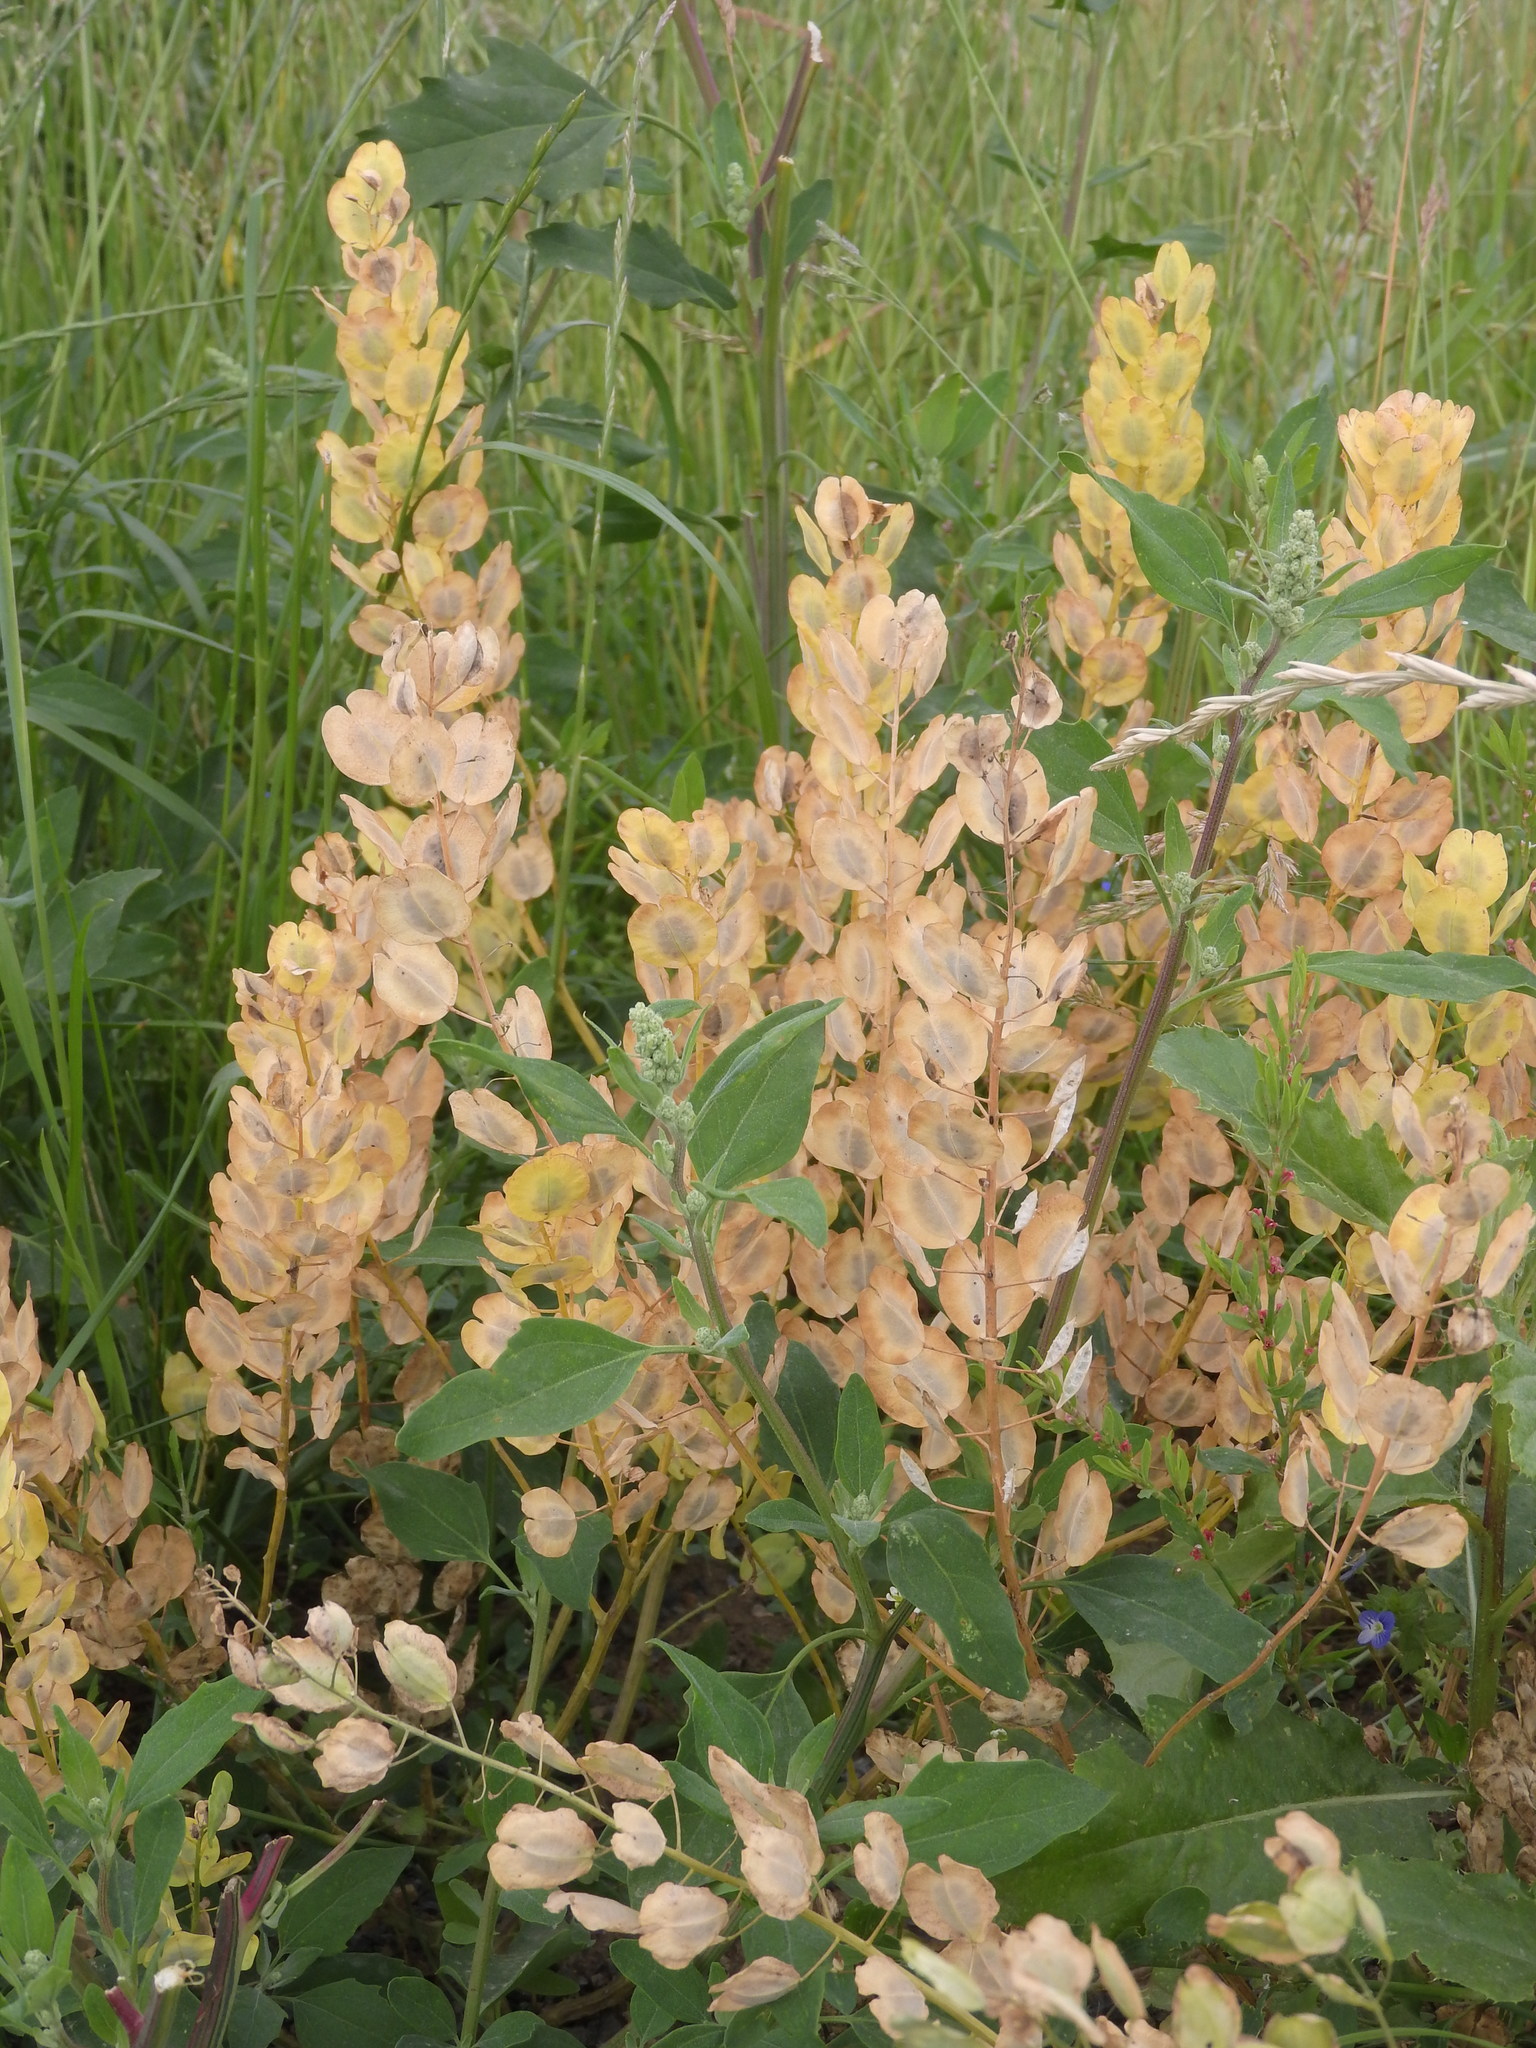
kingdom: Plantae
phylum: Tracheophyta
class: Magnoliopsida
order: Brassicales
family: Brassicaceae
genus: Thlaspi
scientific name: Thlaspi arvense
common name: Field pennycress
